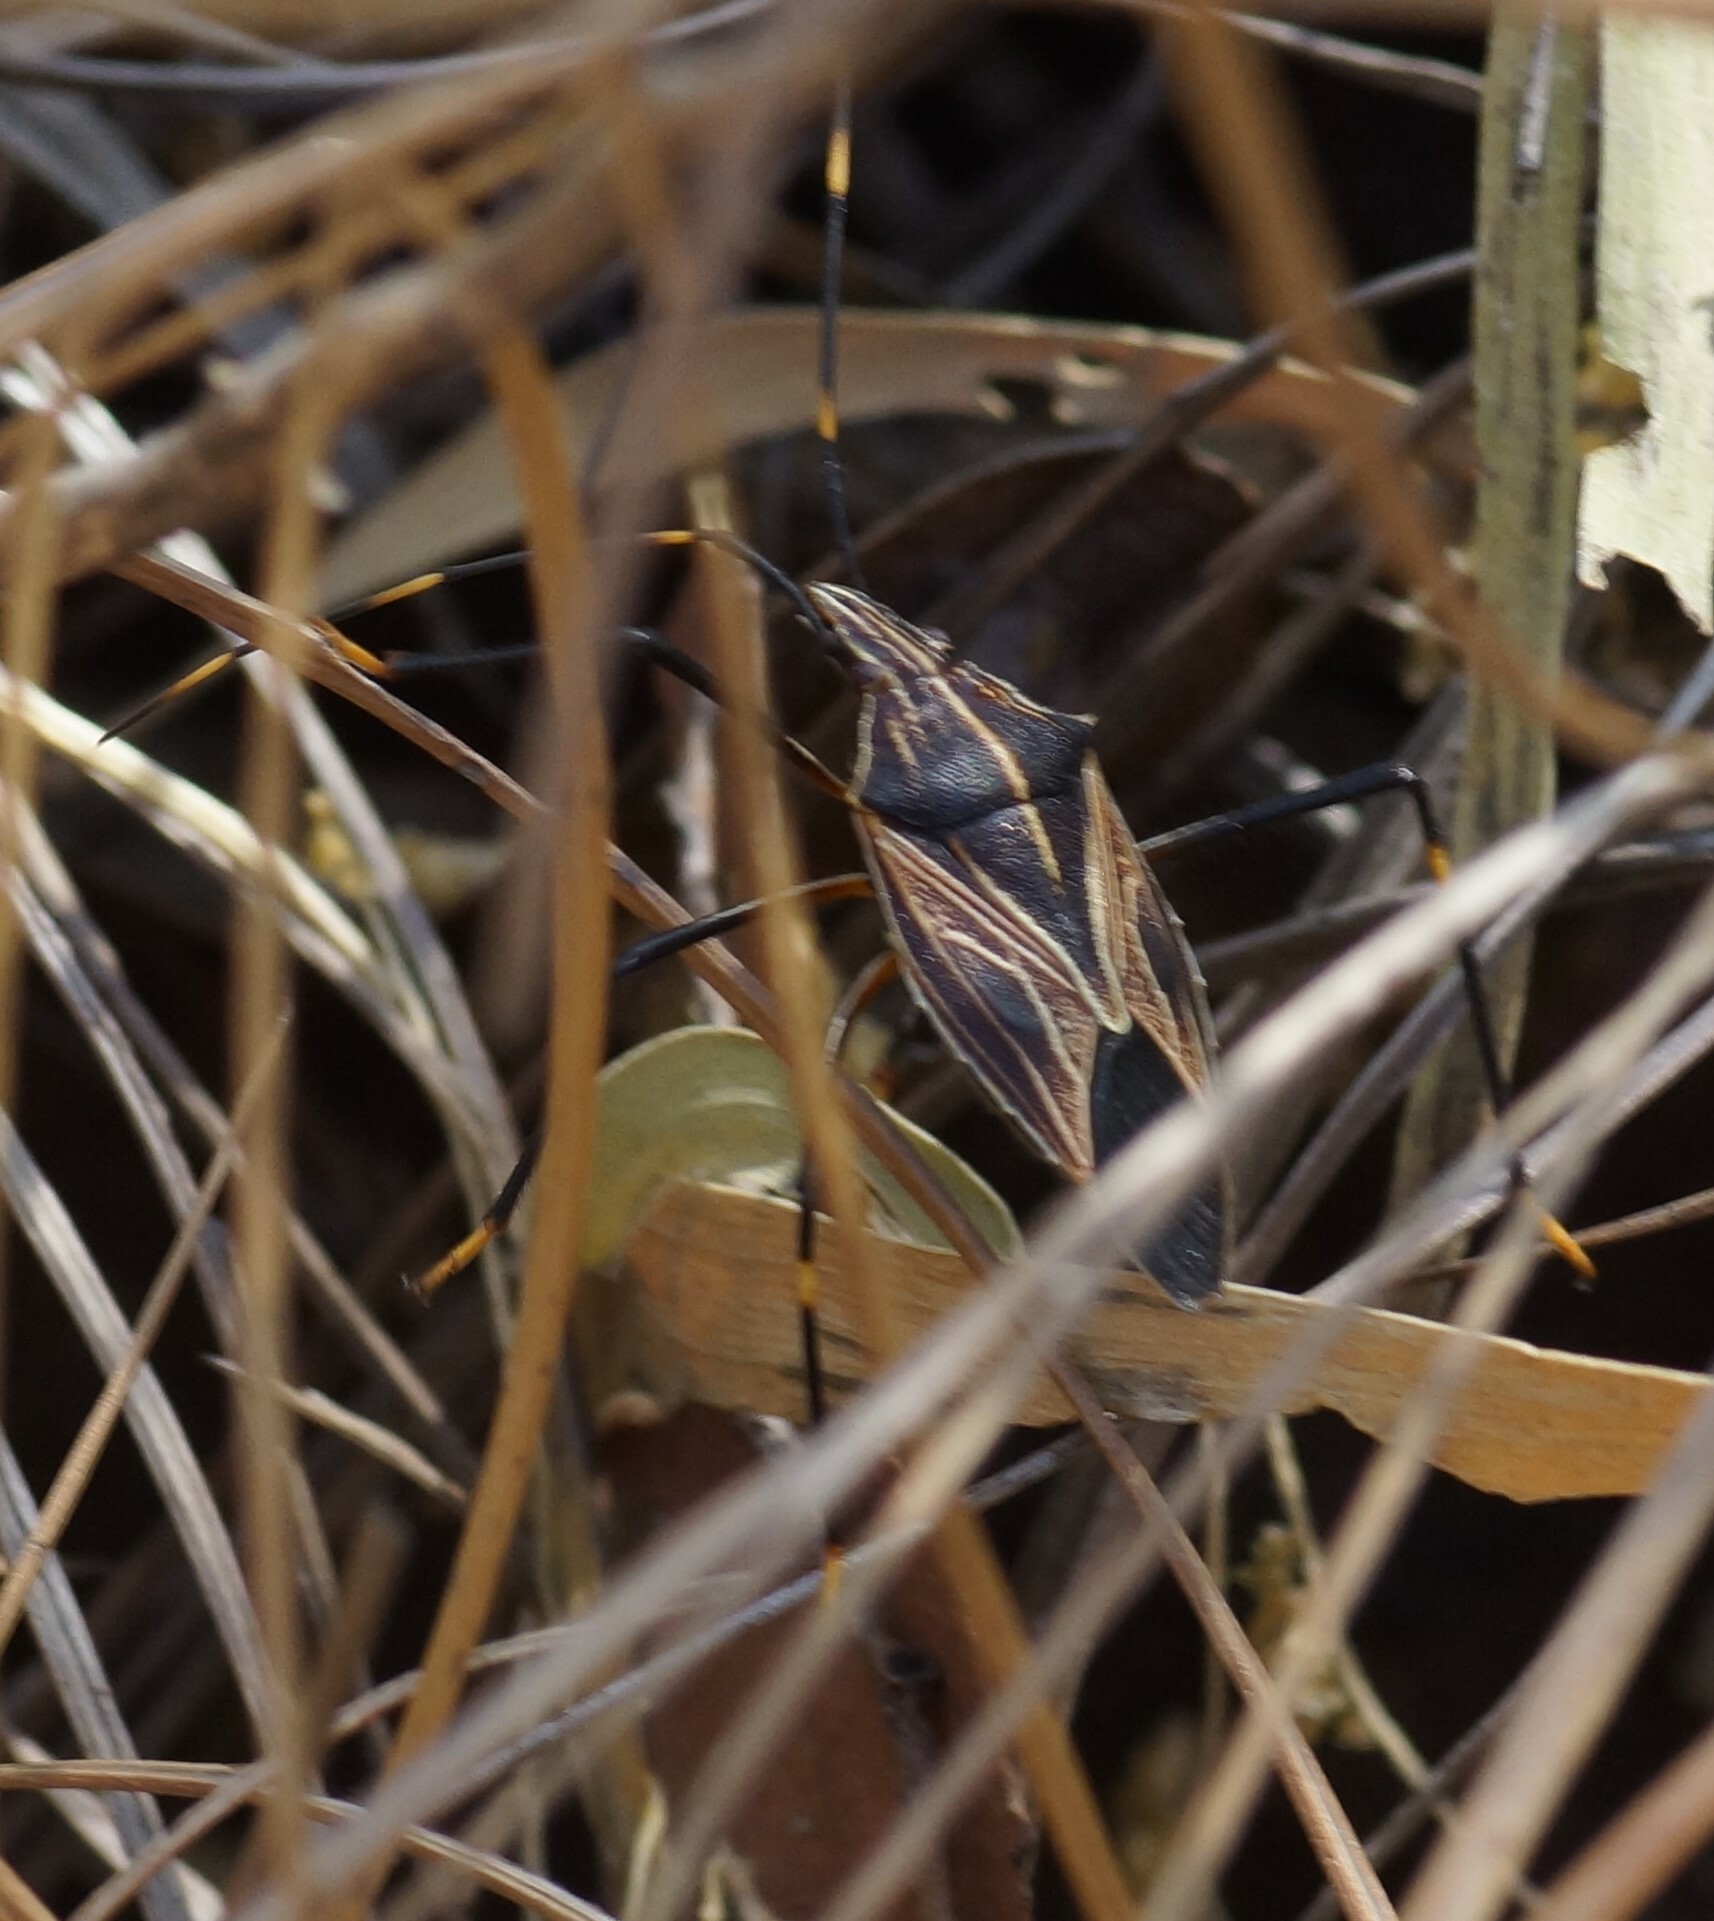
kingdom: Animalia
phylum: Arthropoda
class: Insecta
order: Hemiptera
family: Pentatomidae
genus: Poecilometis
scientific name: Poecilometis
